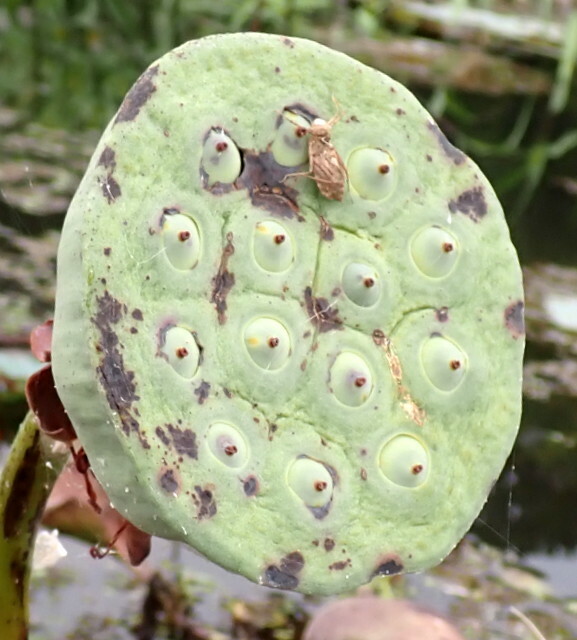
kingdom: Plantae
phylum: Tracheophyta
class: Magnoliopsida
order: Proteales
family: Nelumbonaceae
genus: Nelumbo
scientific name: Nelumbo lutea
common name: American lotus
